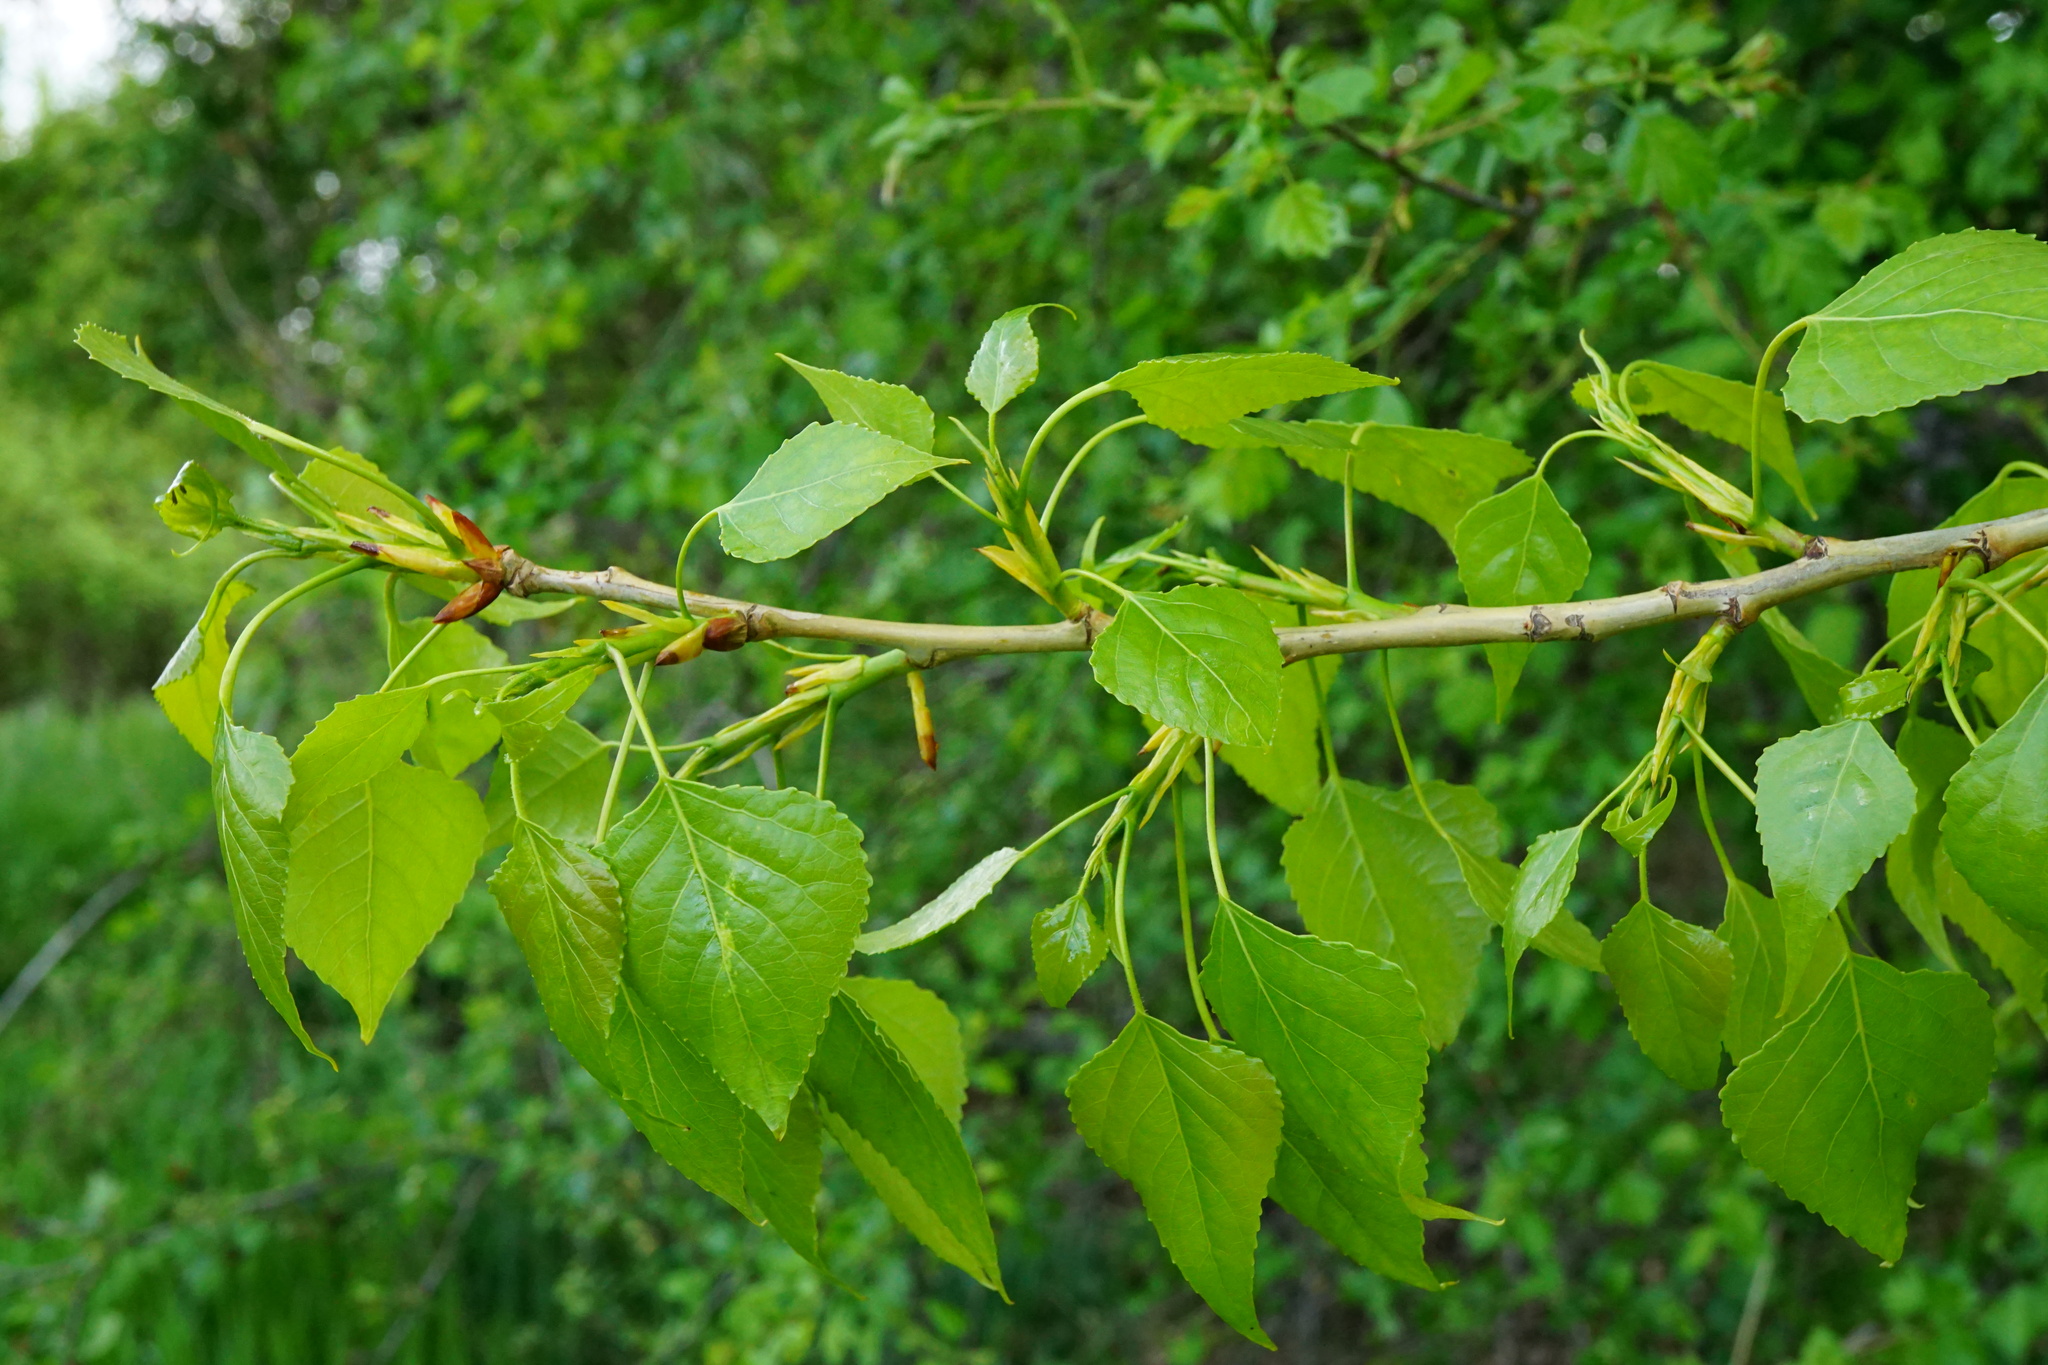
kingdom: Plantae
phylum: Tracheophyta
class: Magnoliopsida
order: Malpighiales
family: Salicaceae
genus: Populus
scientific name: Populus nigra
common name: Black poplar
